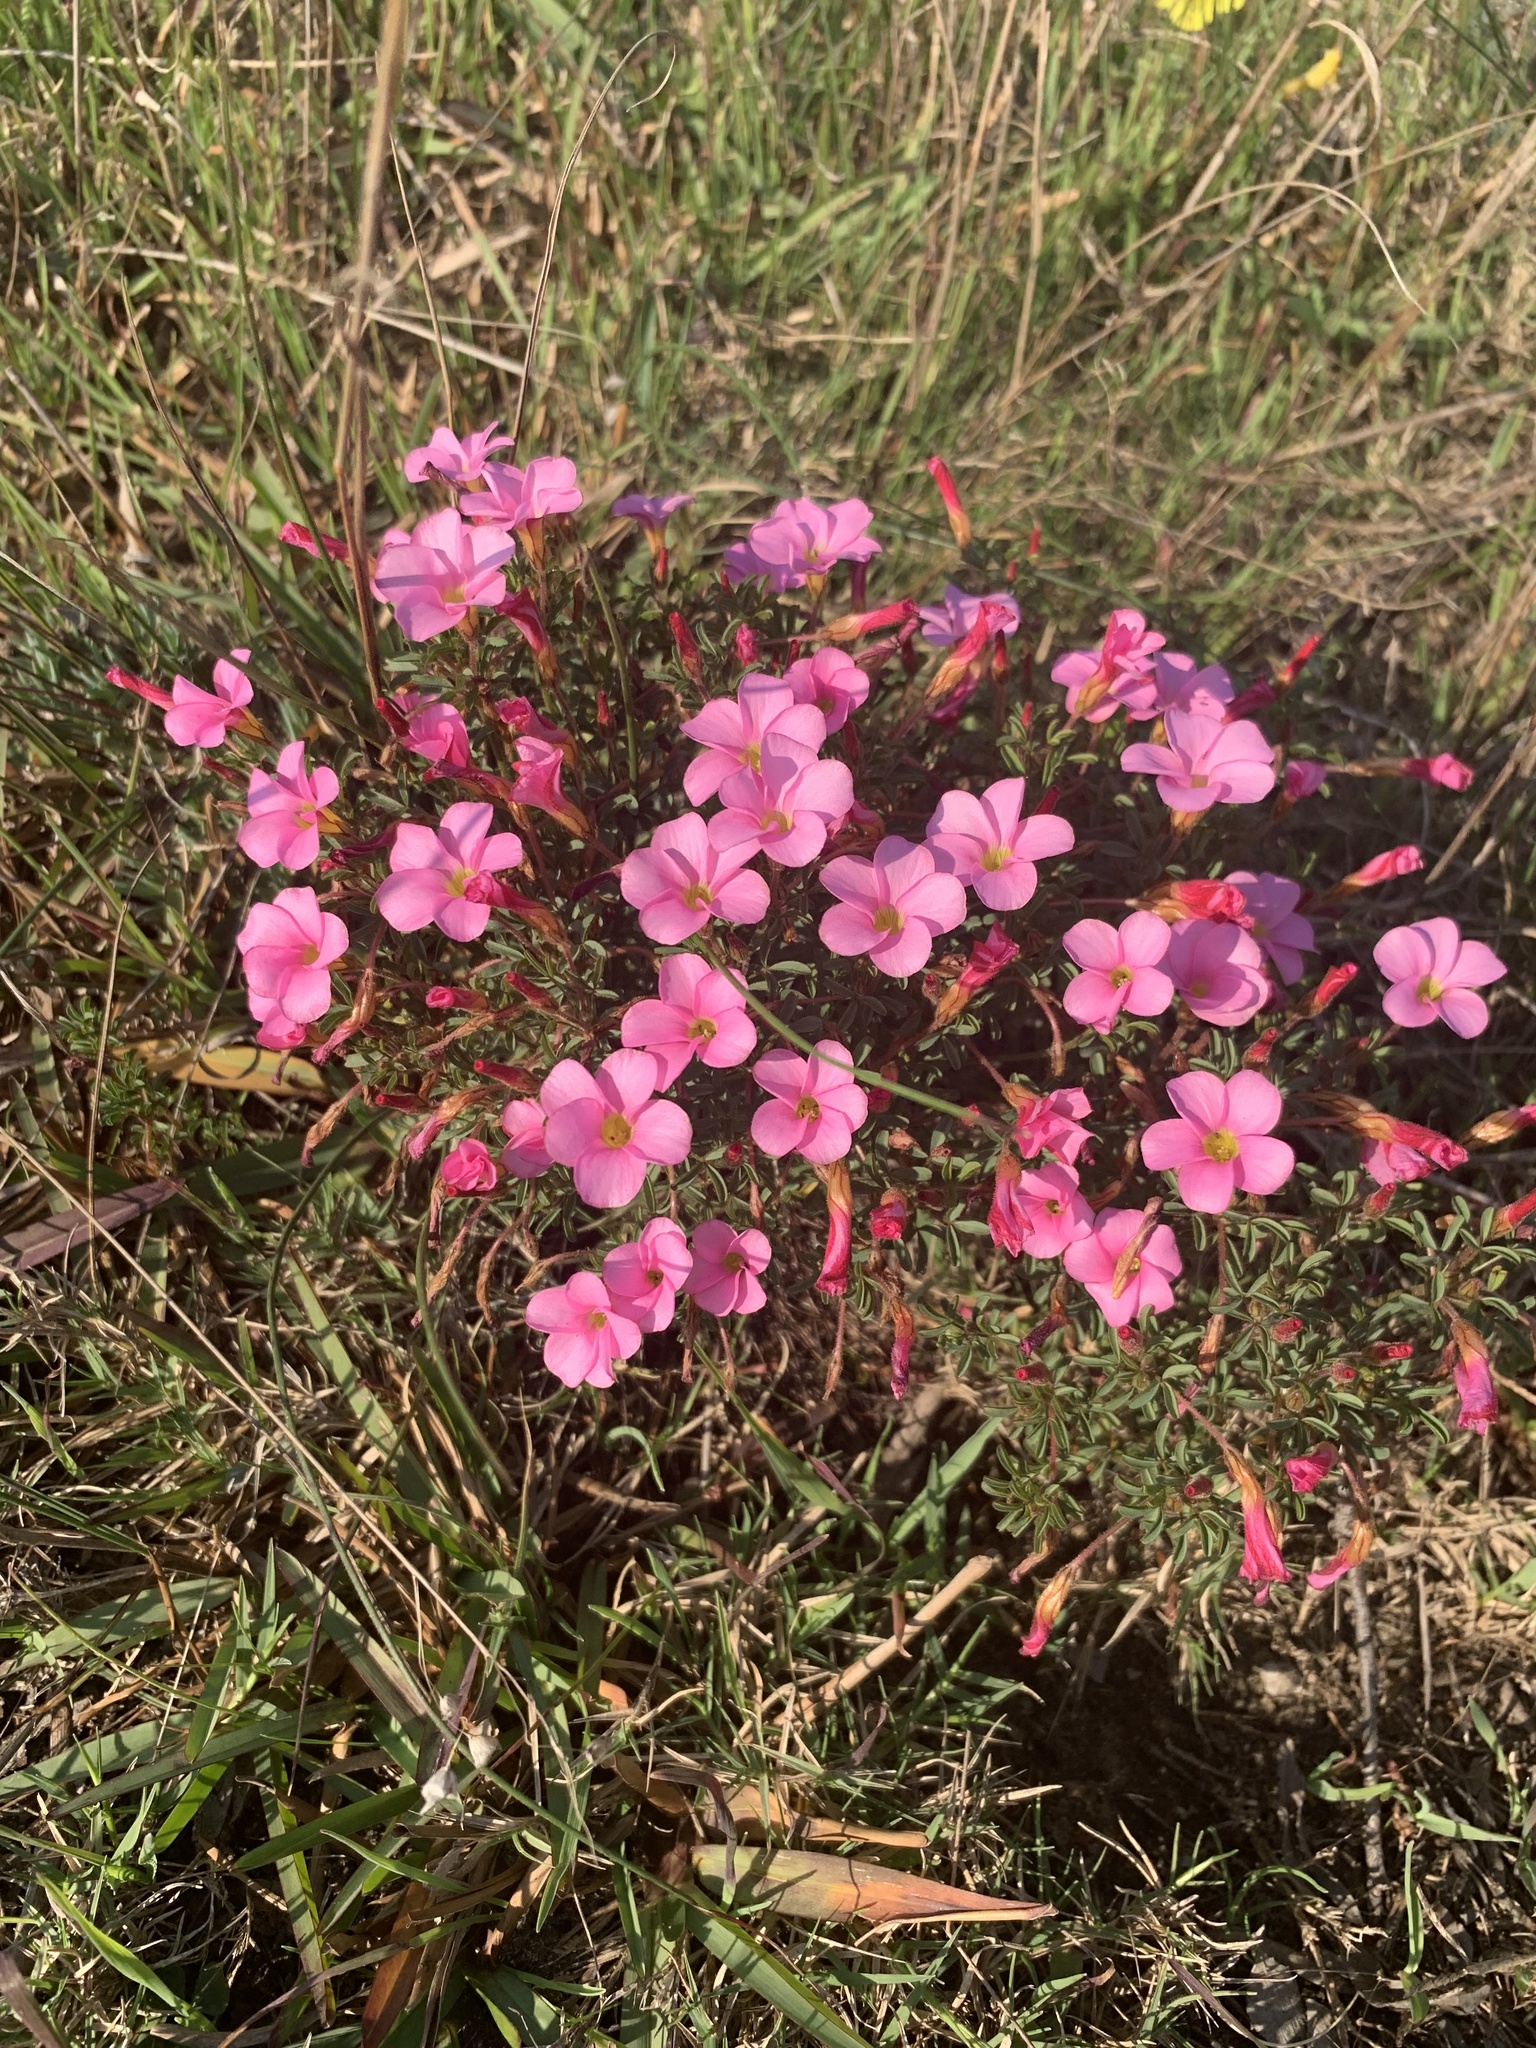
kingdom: Plantae
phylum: Tracheophyta
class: Magnoliopsida
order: Oxalidales
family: Oxalidaceae
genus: Oxalis
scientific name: Oxalis multicaulis
